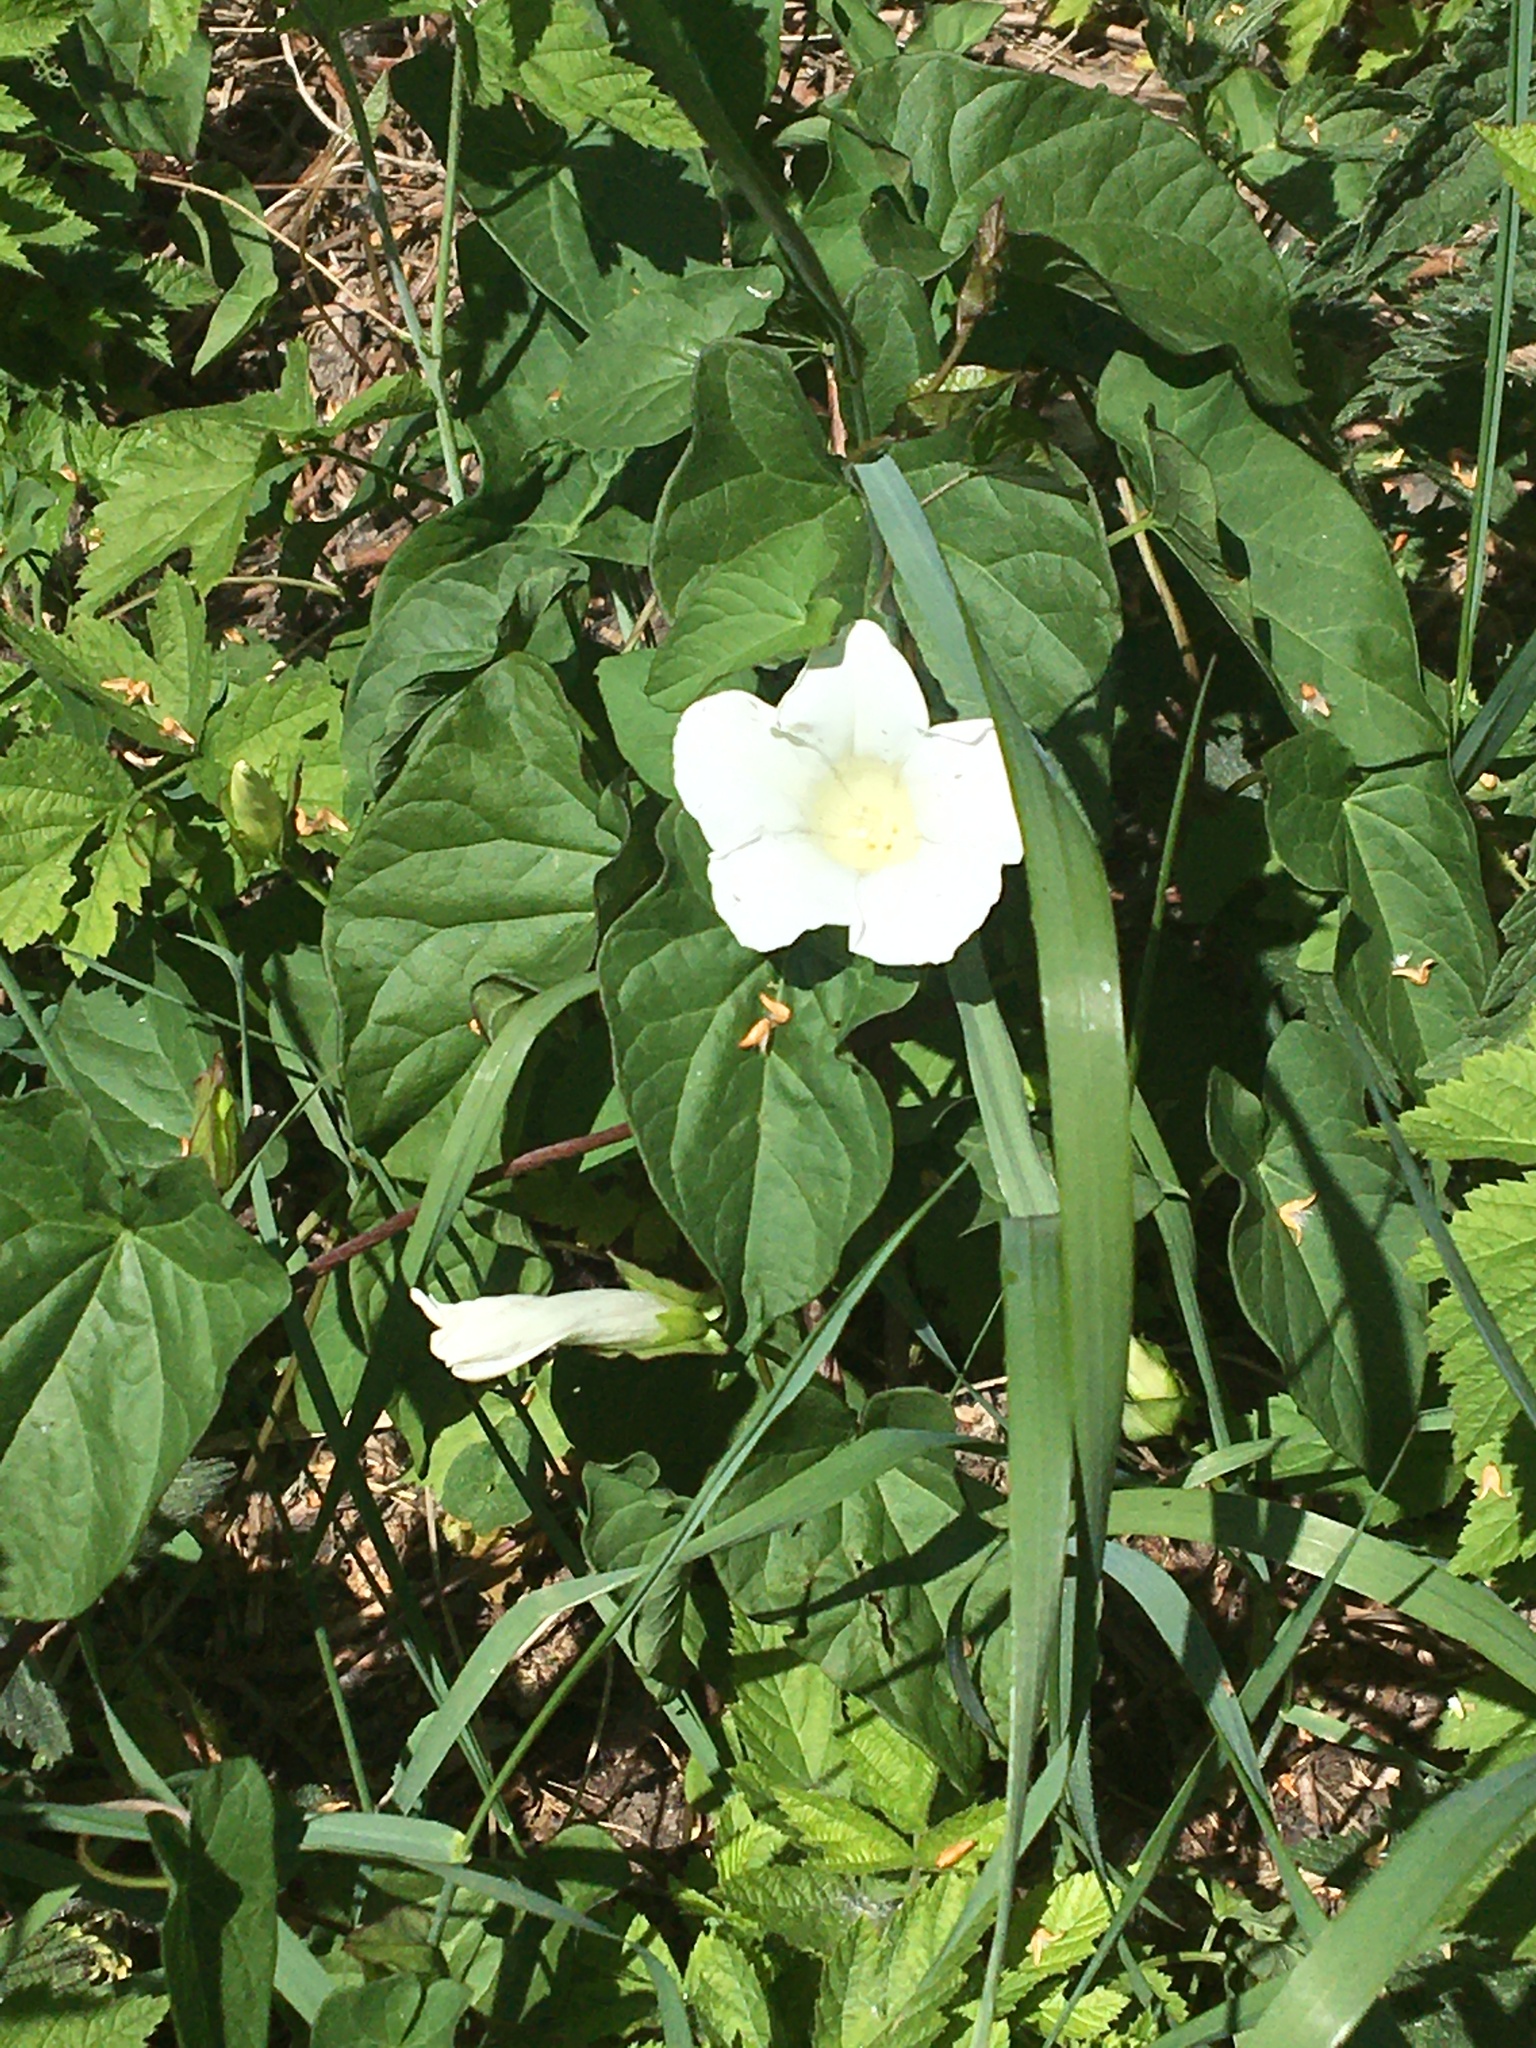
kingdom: Plantae
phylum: Tracheophyta
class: Magnoliopsida
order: Solanales
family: Convolvulaceae
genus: Calystegia
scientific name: Calystegia sepium
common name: Hedge bindweed
